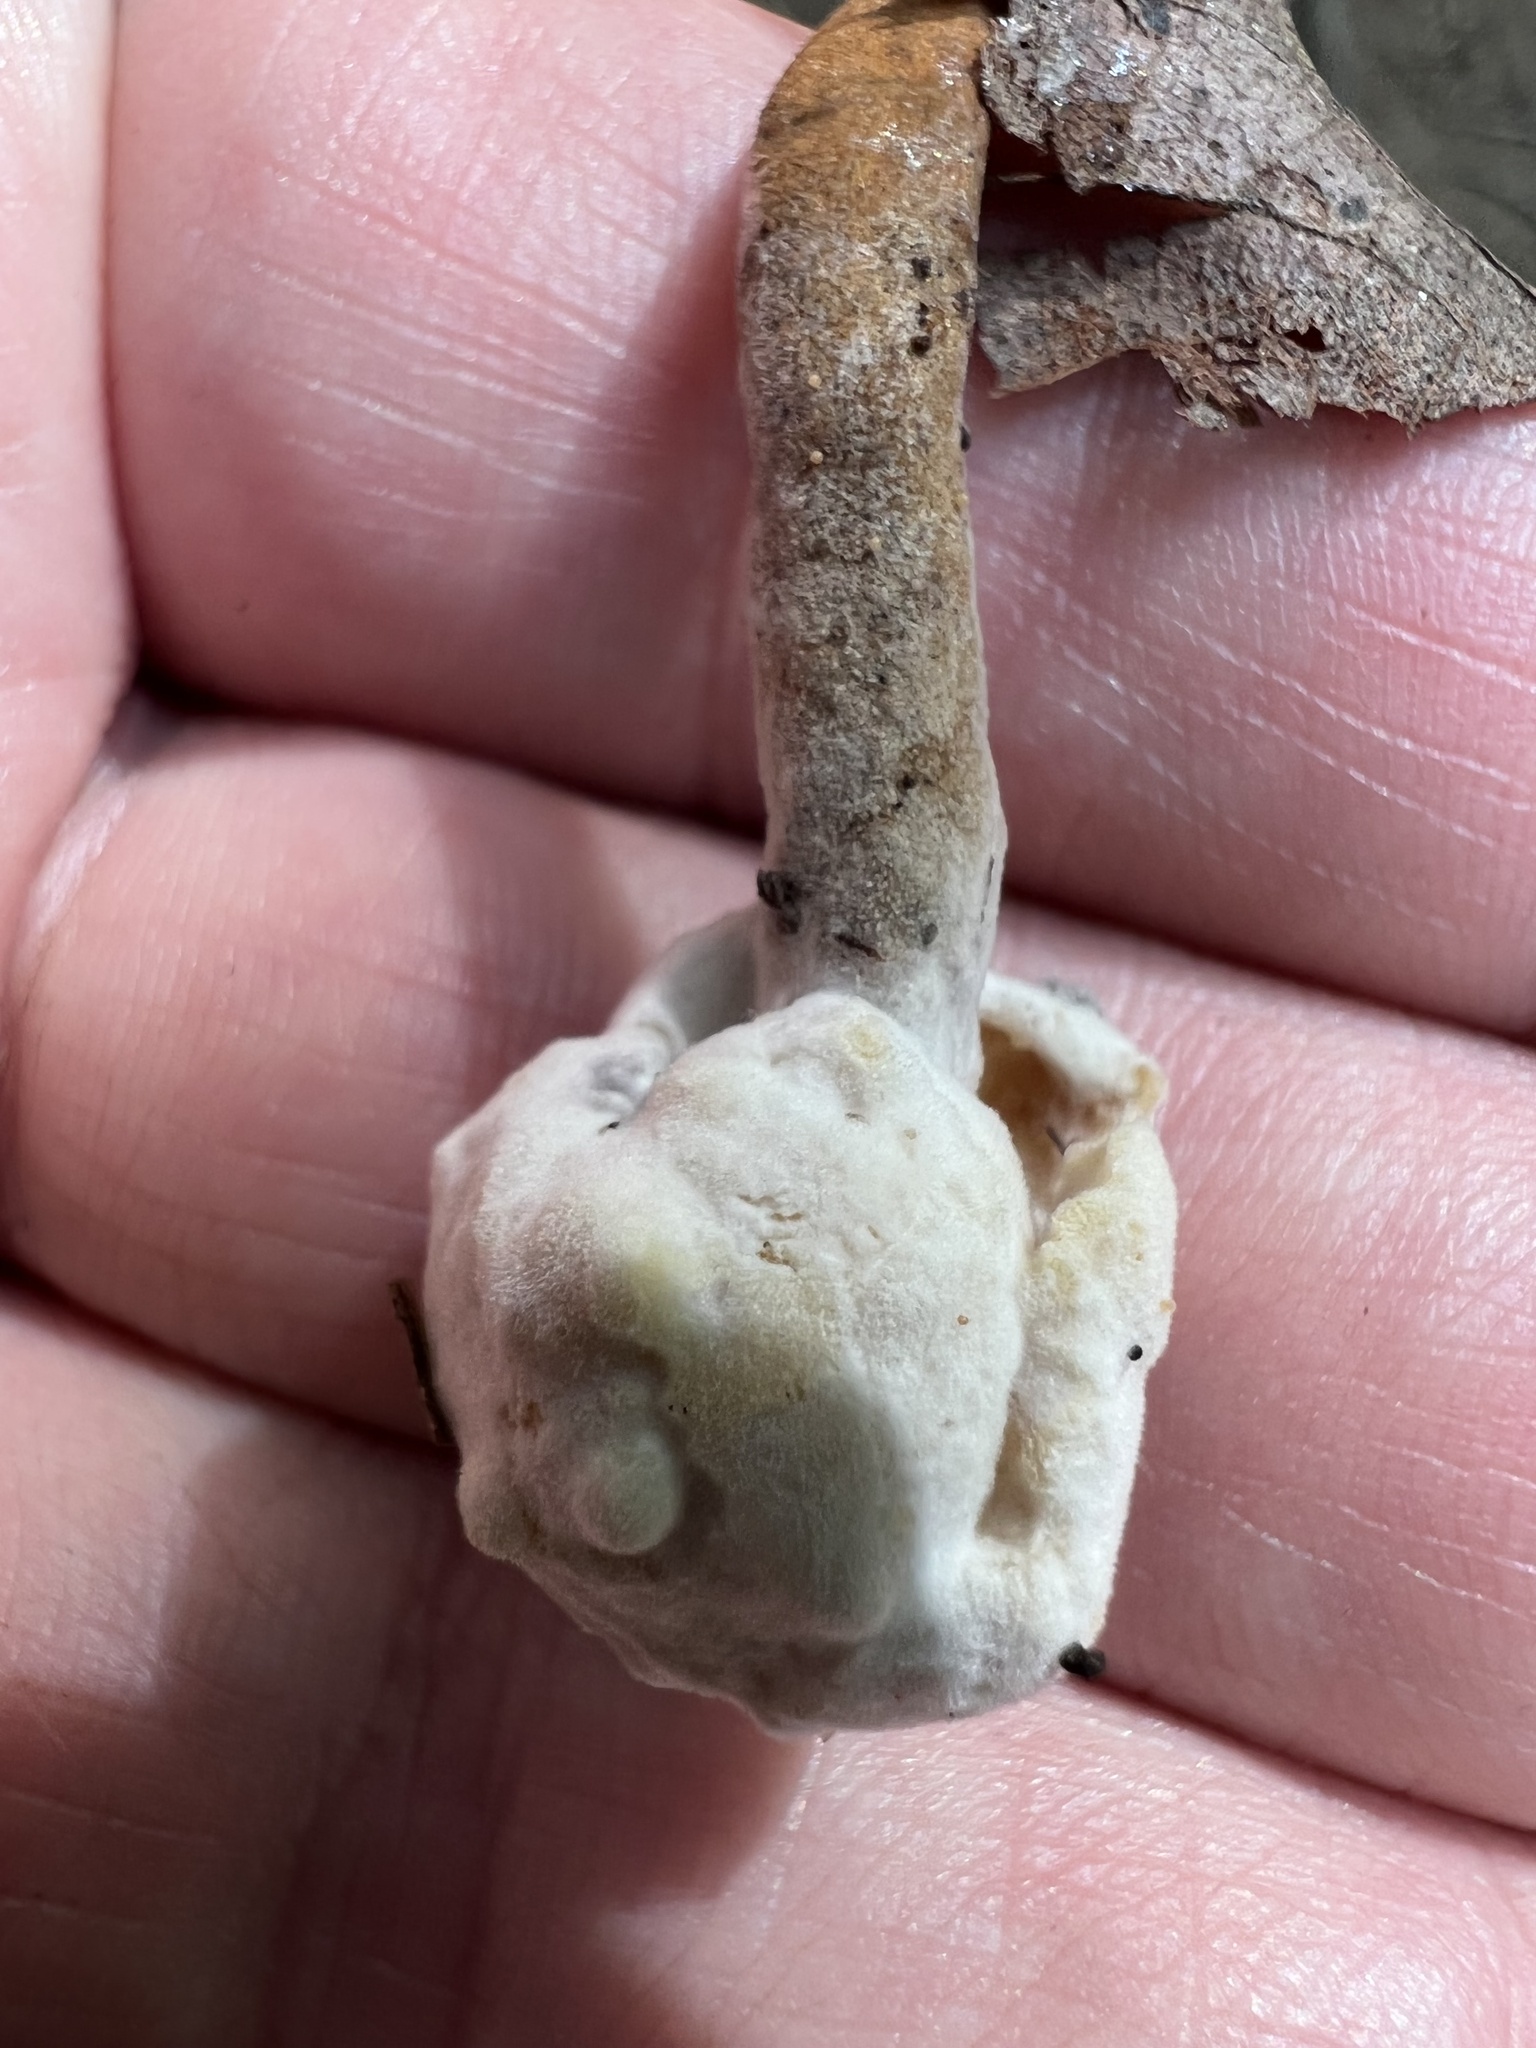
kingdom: Fungi
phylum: Ascomycota
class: Sordariomycetes
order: Hypocreales
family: Hypocreaceae
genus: Hypomyces
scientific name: Hypomyces chrysospermus
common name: Bolete mould
